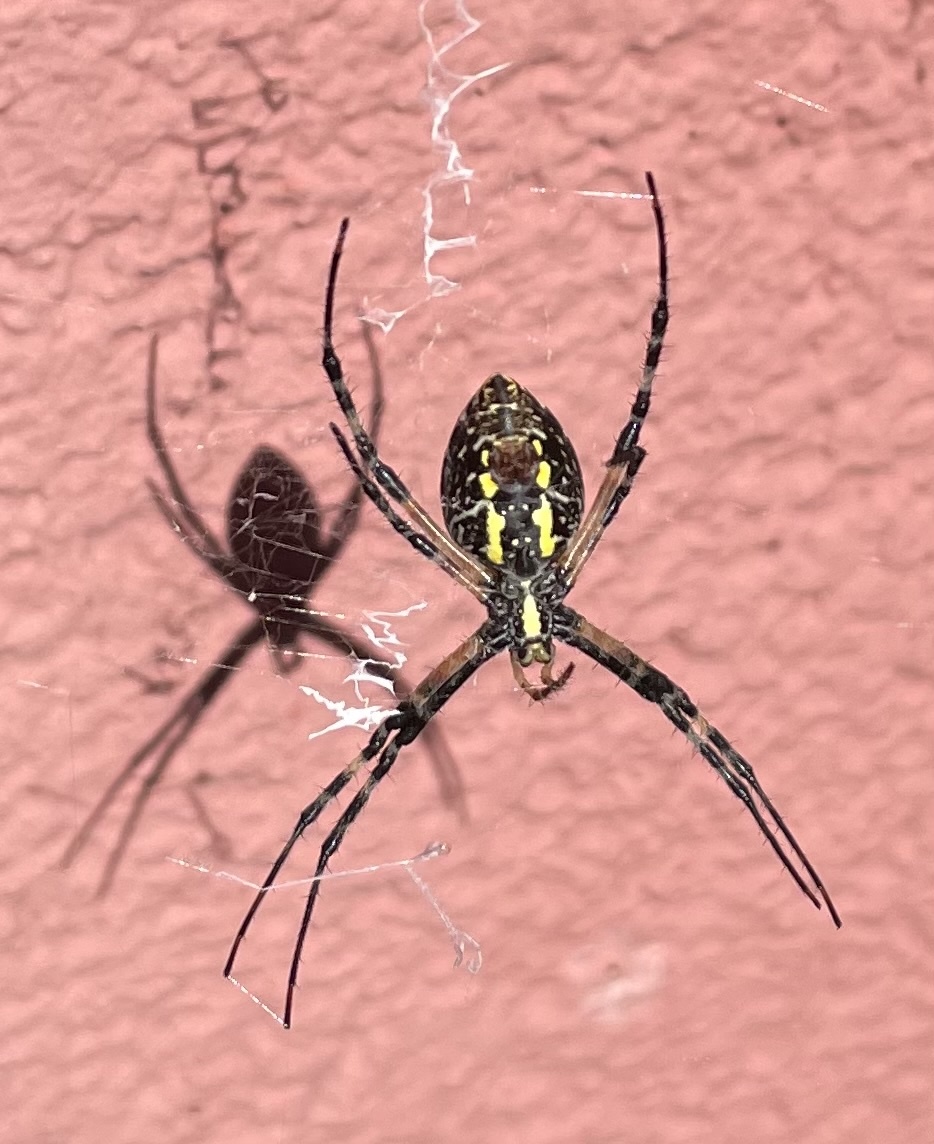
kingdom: Animalia
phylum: Arthropoda
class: Arachnida
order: Araneae
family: Araneidae
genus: Argiope
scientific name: Argiope aurantia
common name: Orb weavers
